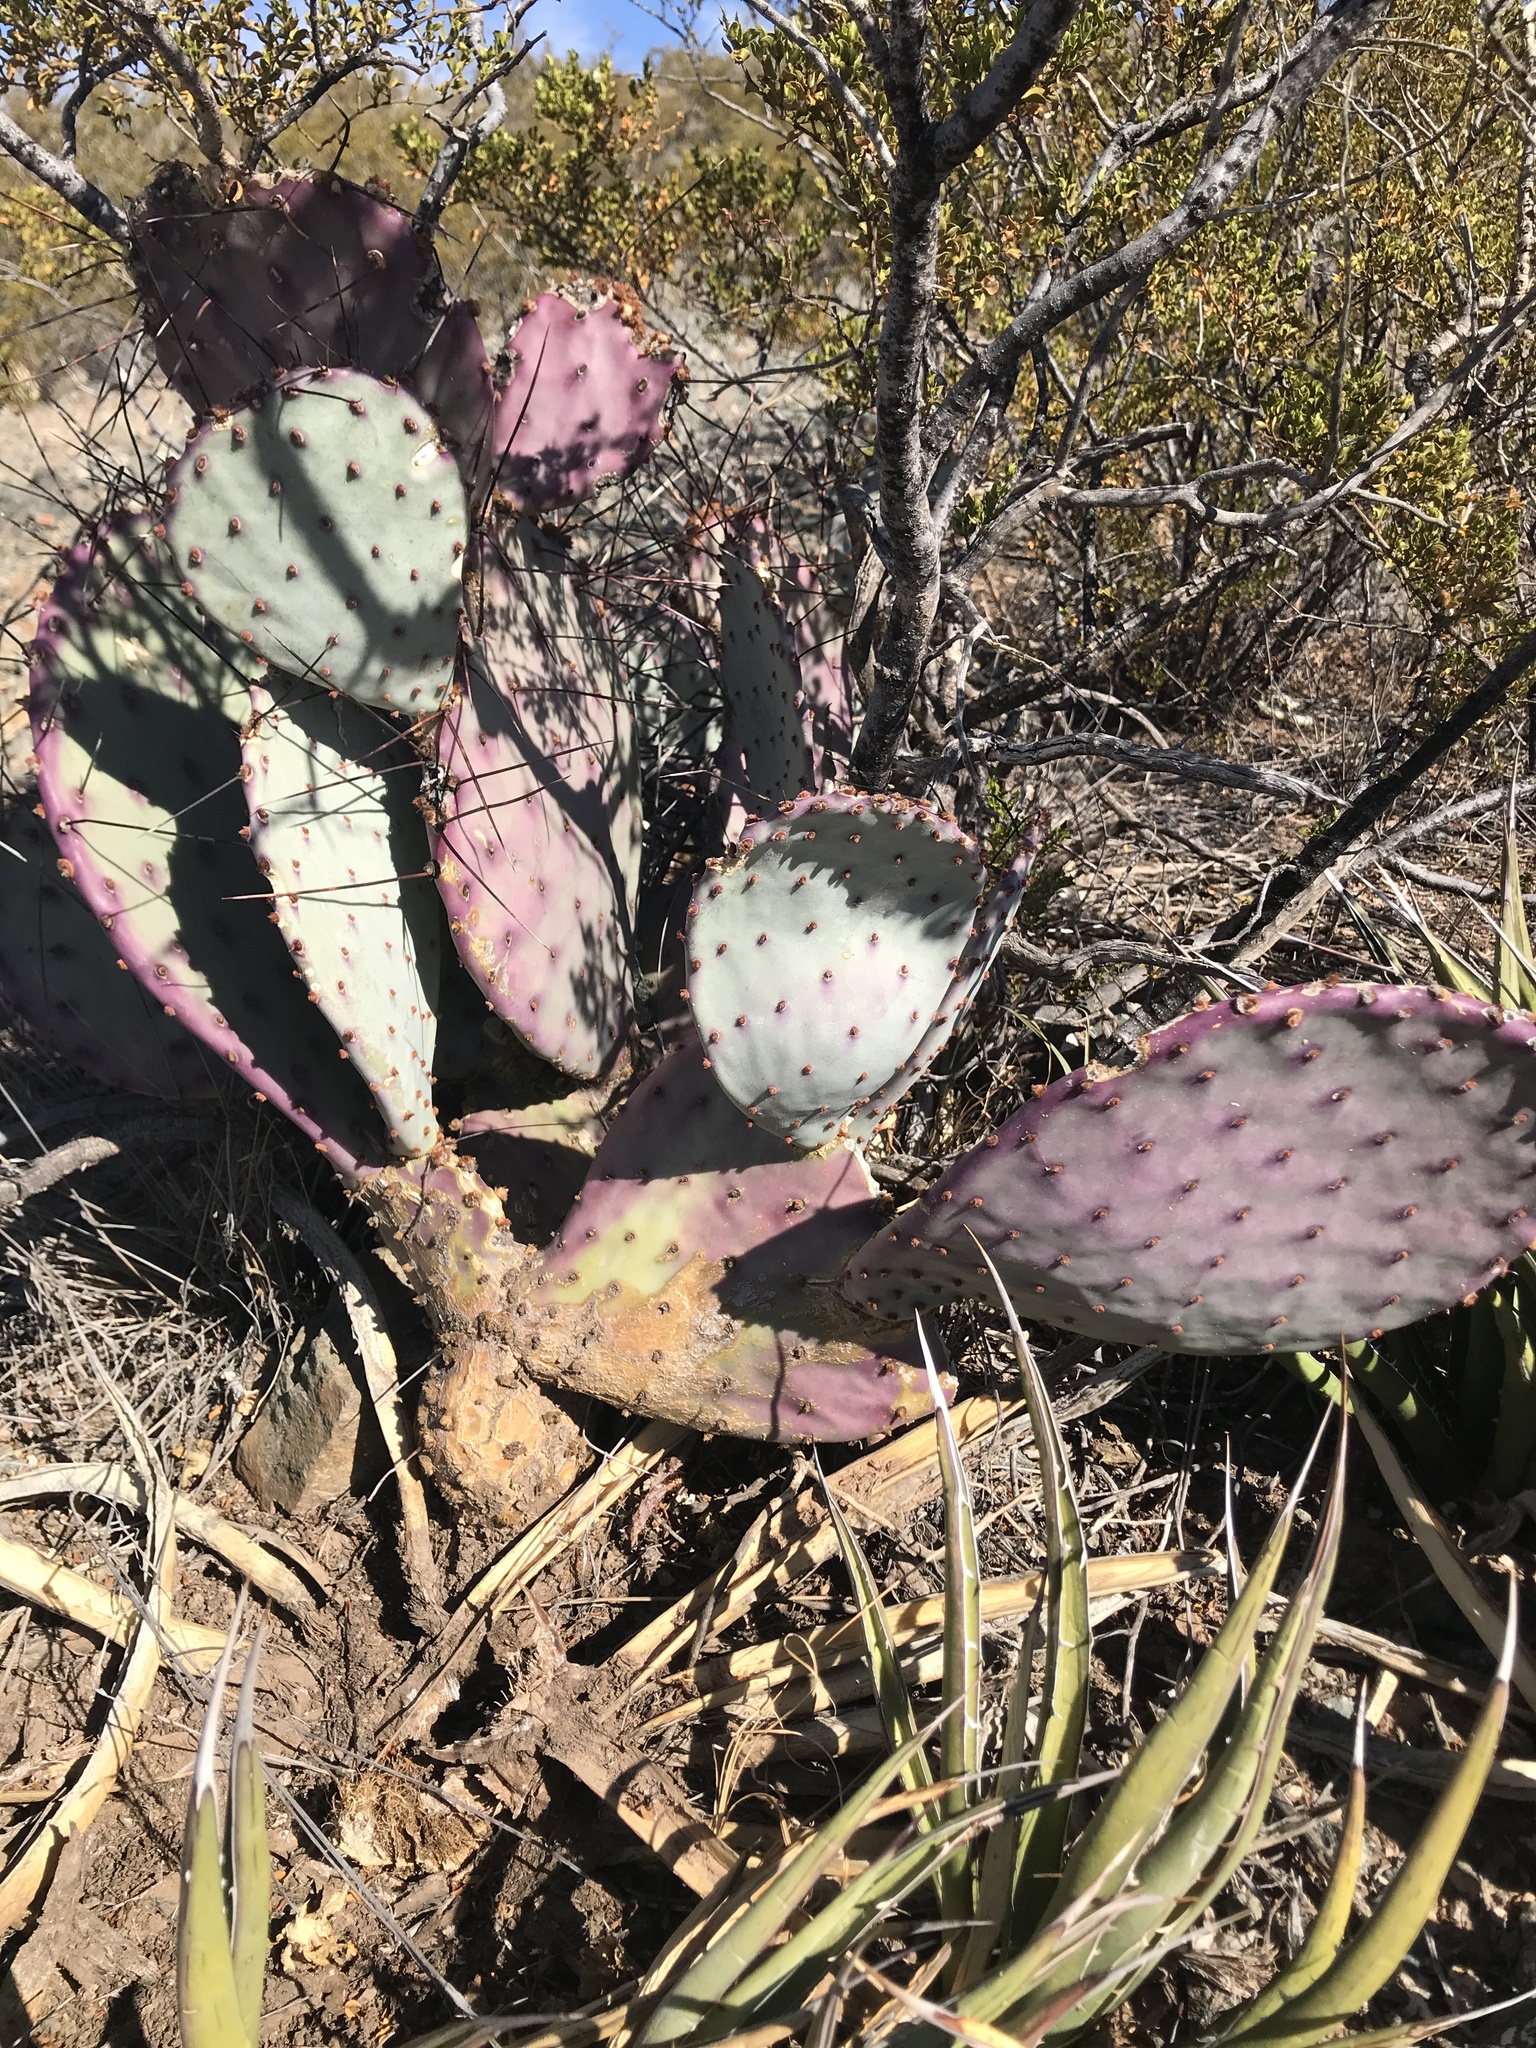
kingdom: Plantae
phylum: Tracheophyta
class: Magnoliopsida
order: Caryophyllales
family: Cactaceae
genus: Opuntia
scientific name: Opuntia gosseliniana
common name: Violet prickly-pear
